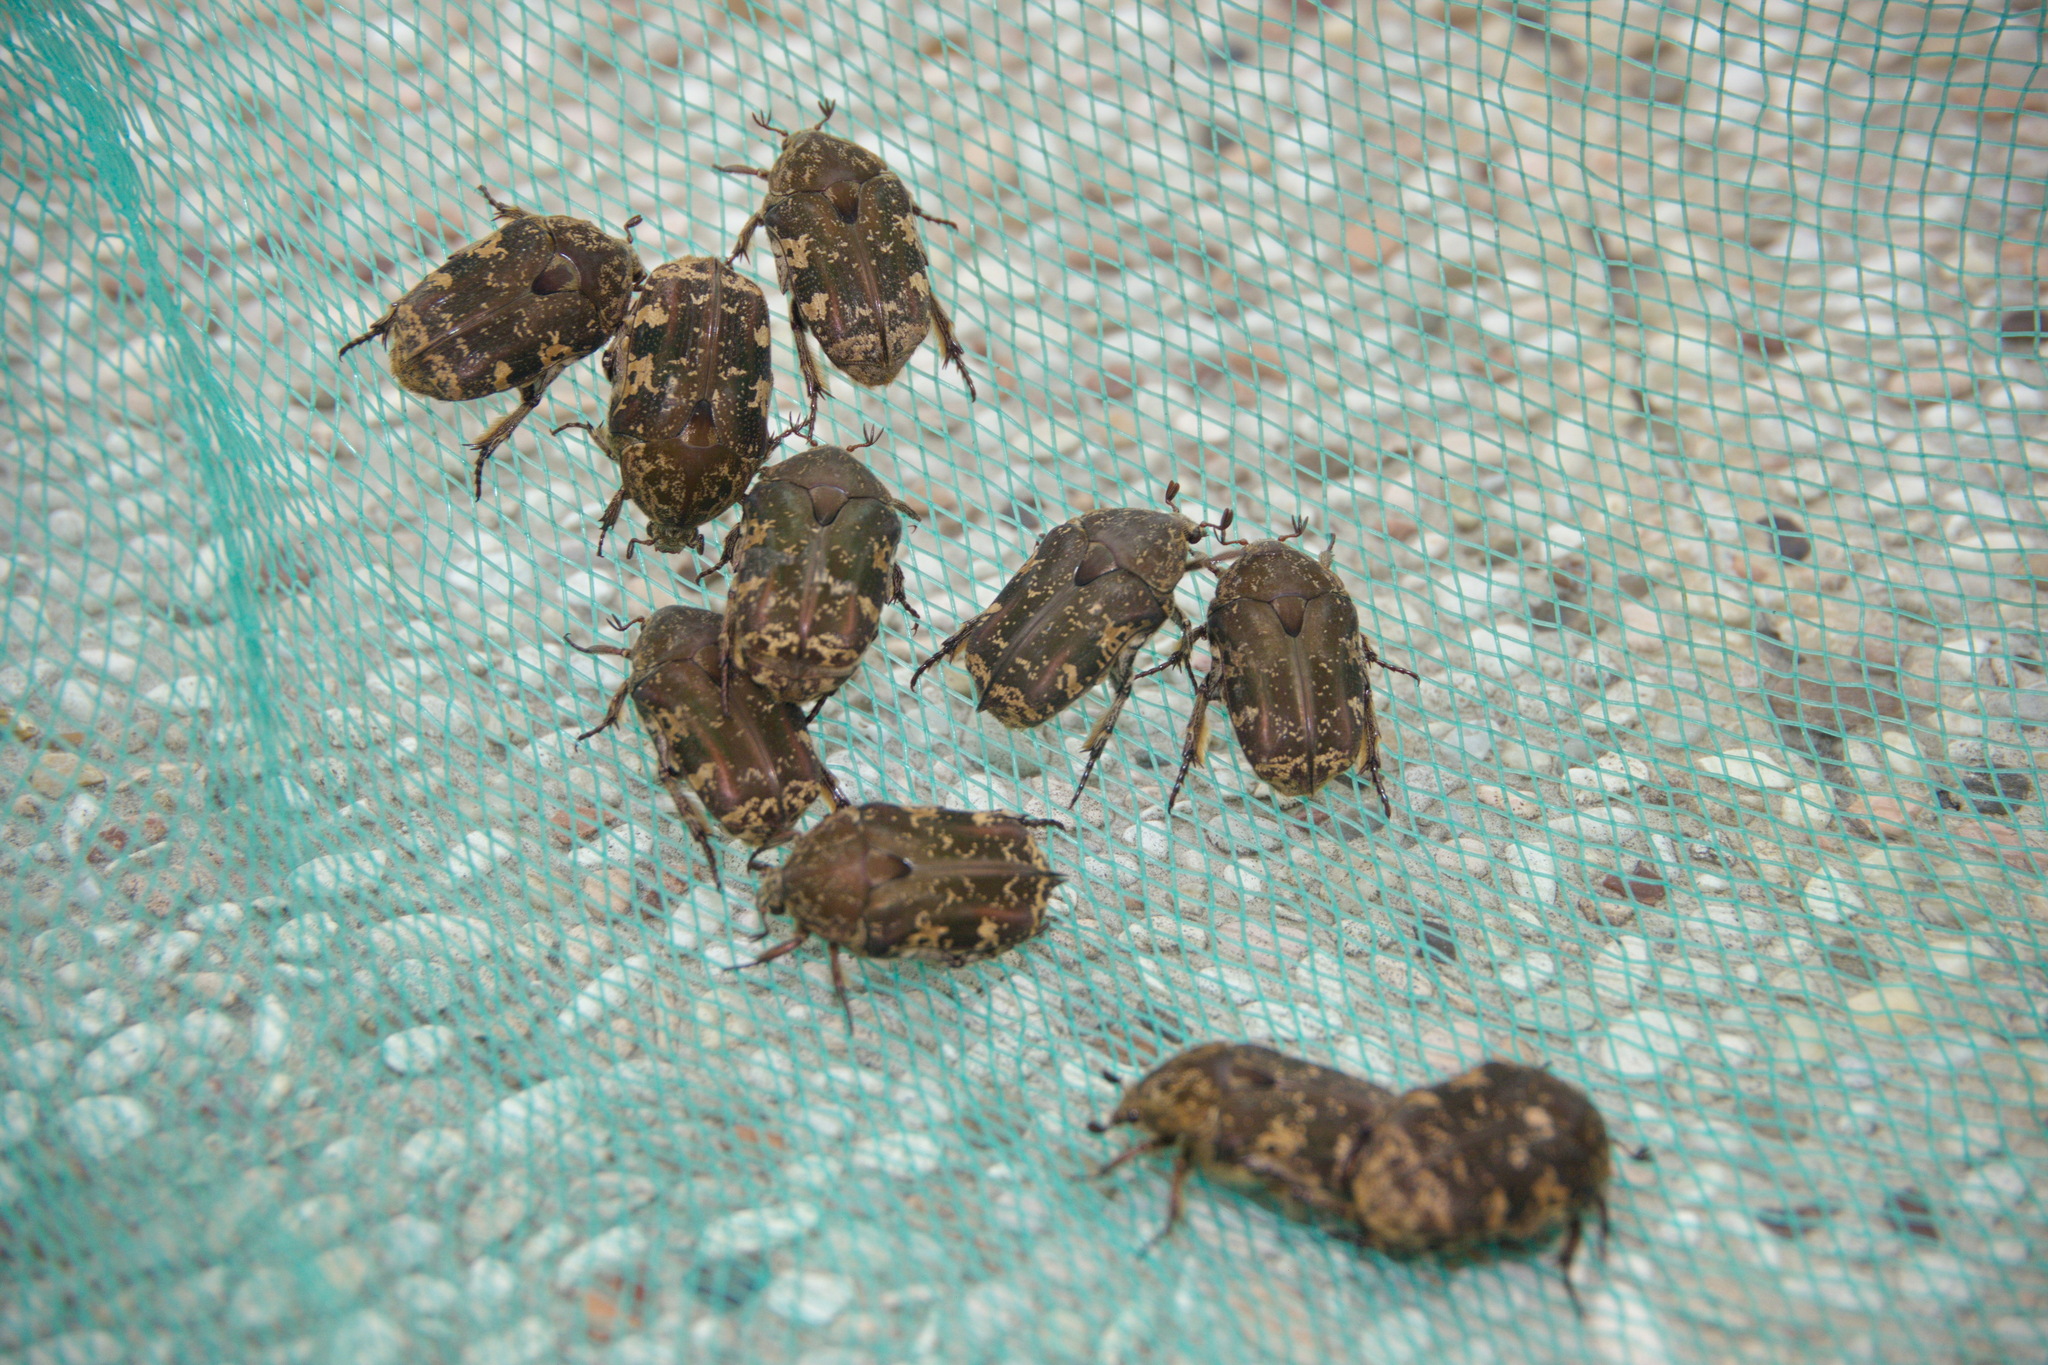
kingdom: Animalia
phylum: Arthropoda
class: Insecta
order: Coleoptera
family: Scarabaeidae
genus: Protaetia
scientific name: Protaetia fusca
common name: Mango flower beetle
